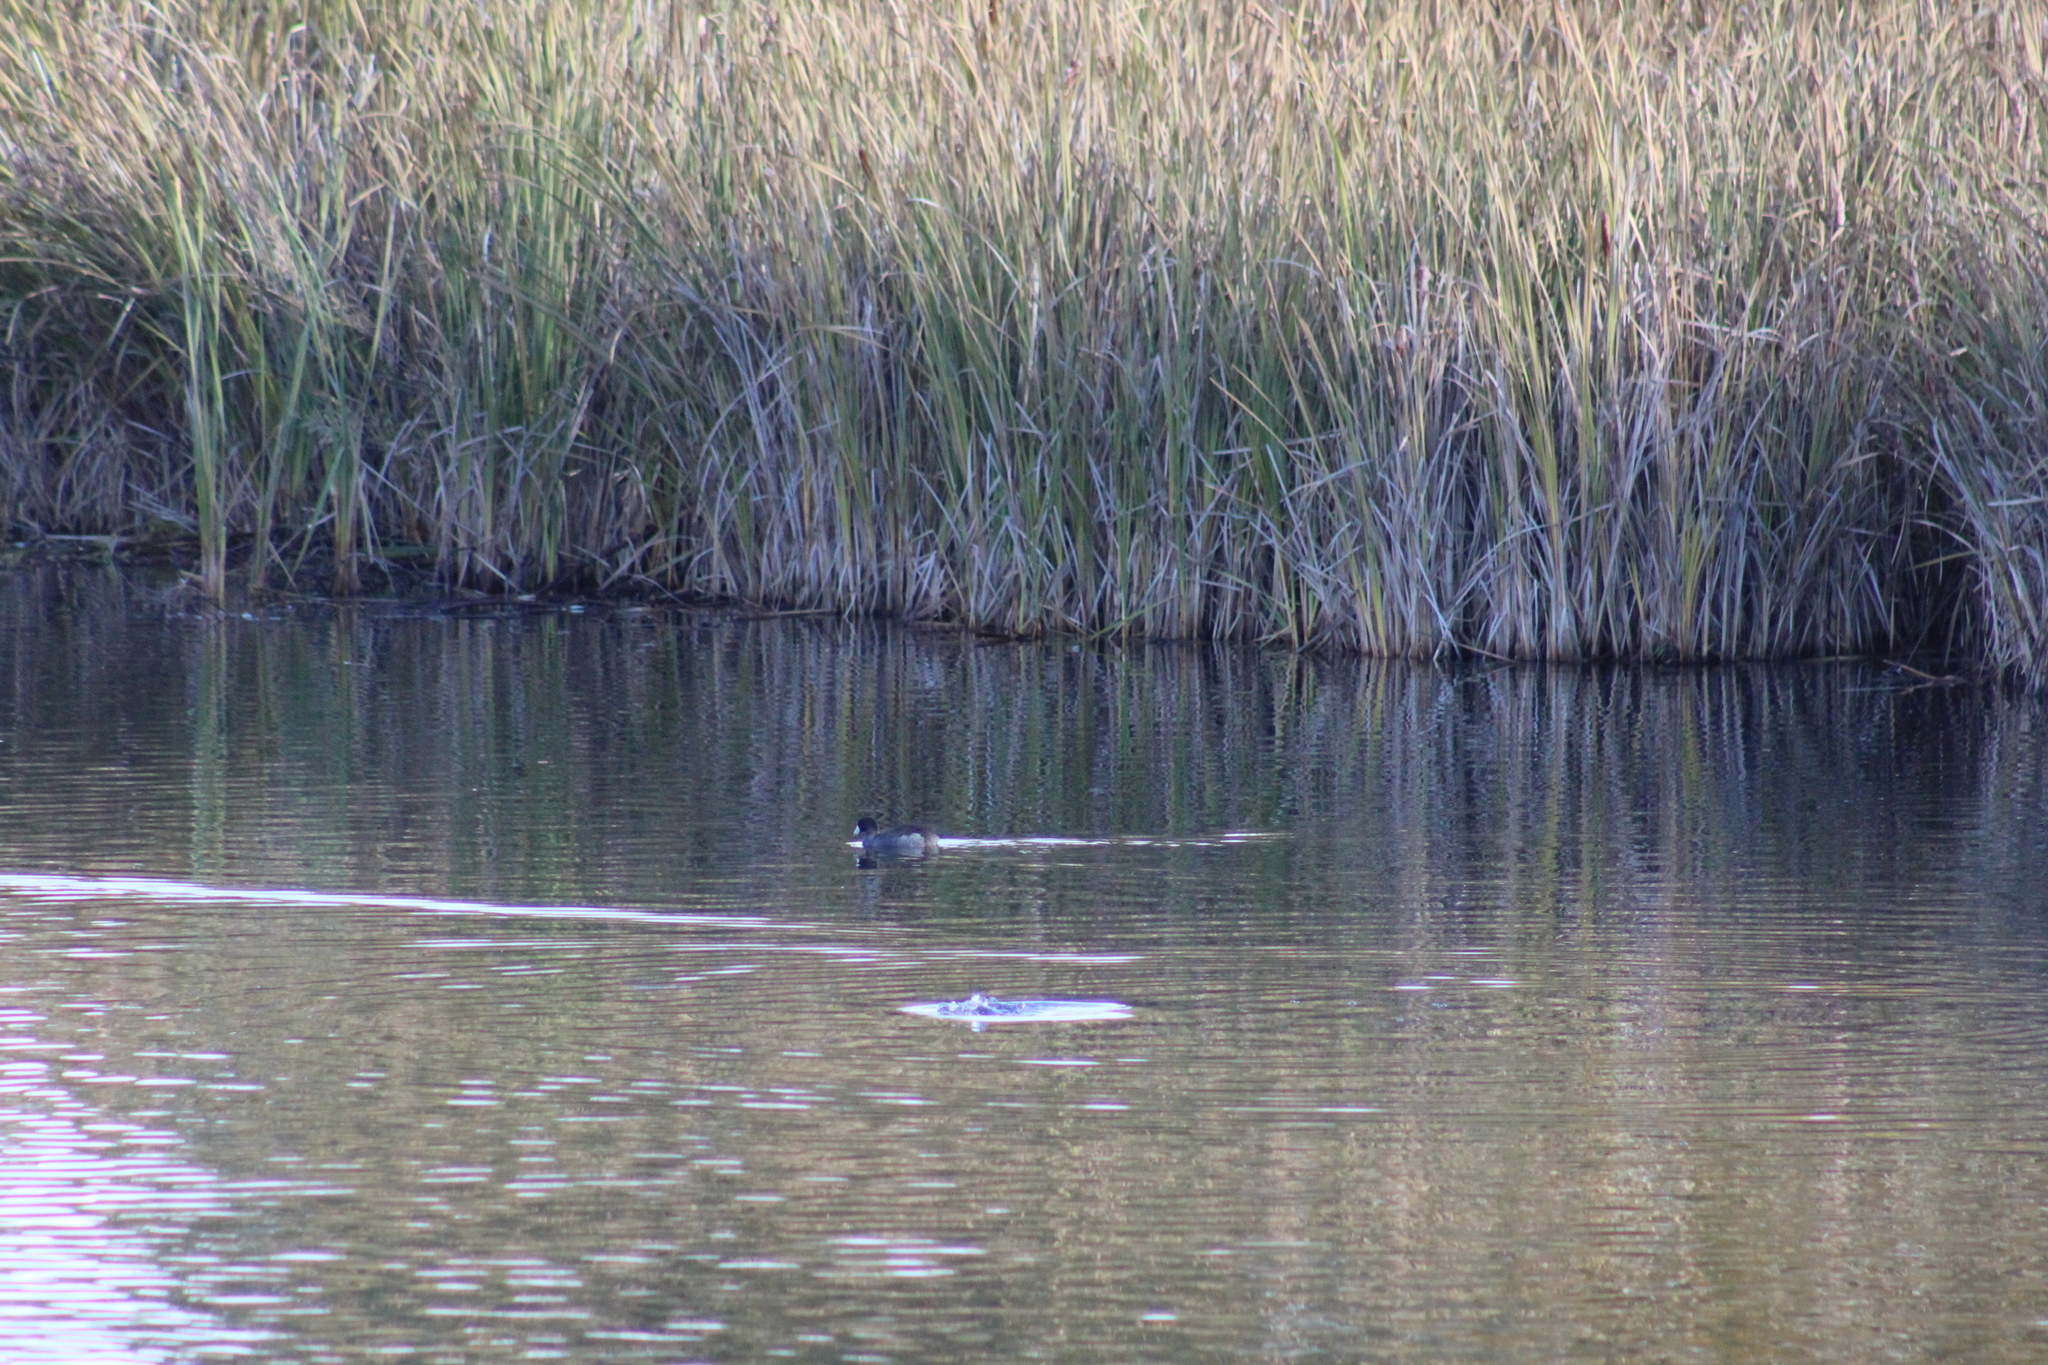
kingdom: Animalia
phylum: Chordata
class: Aves
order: Gruiformes
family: Rallidae
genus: Fulica
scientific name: Fulica americana
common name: American coot
